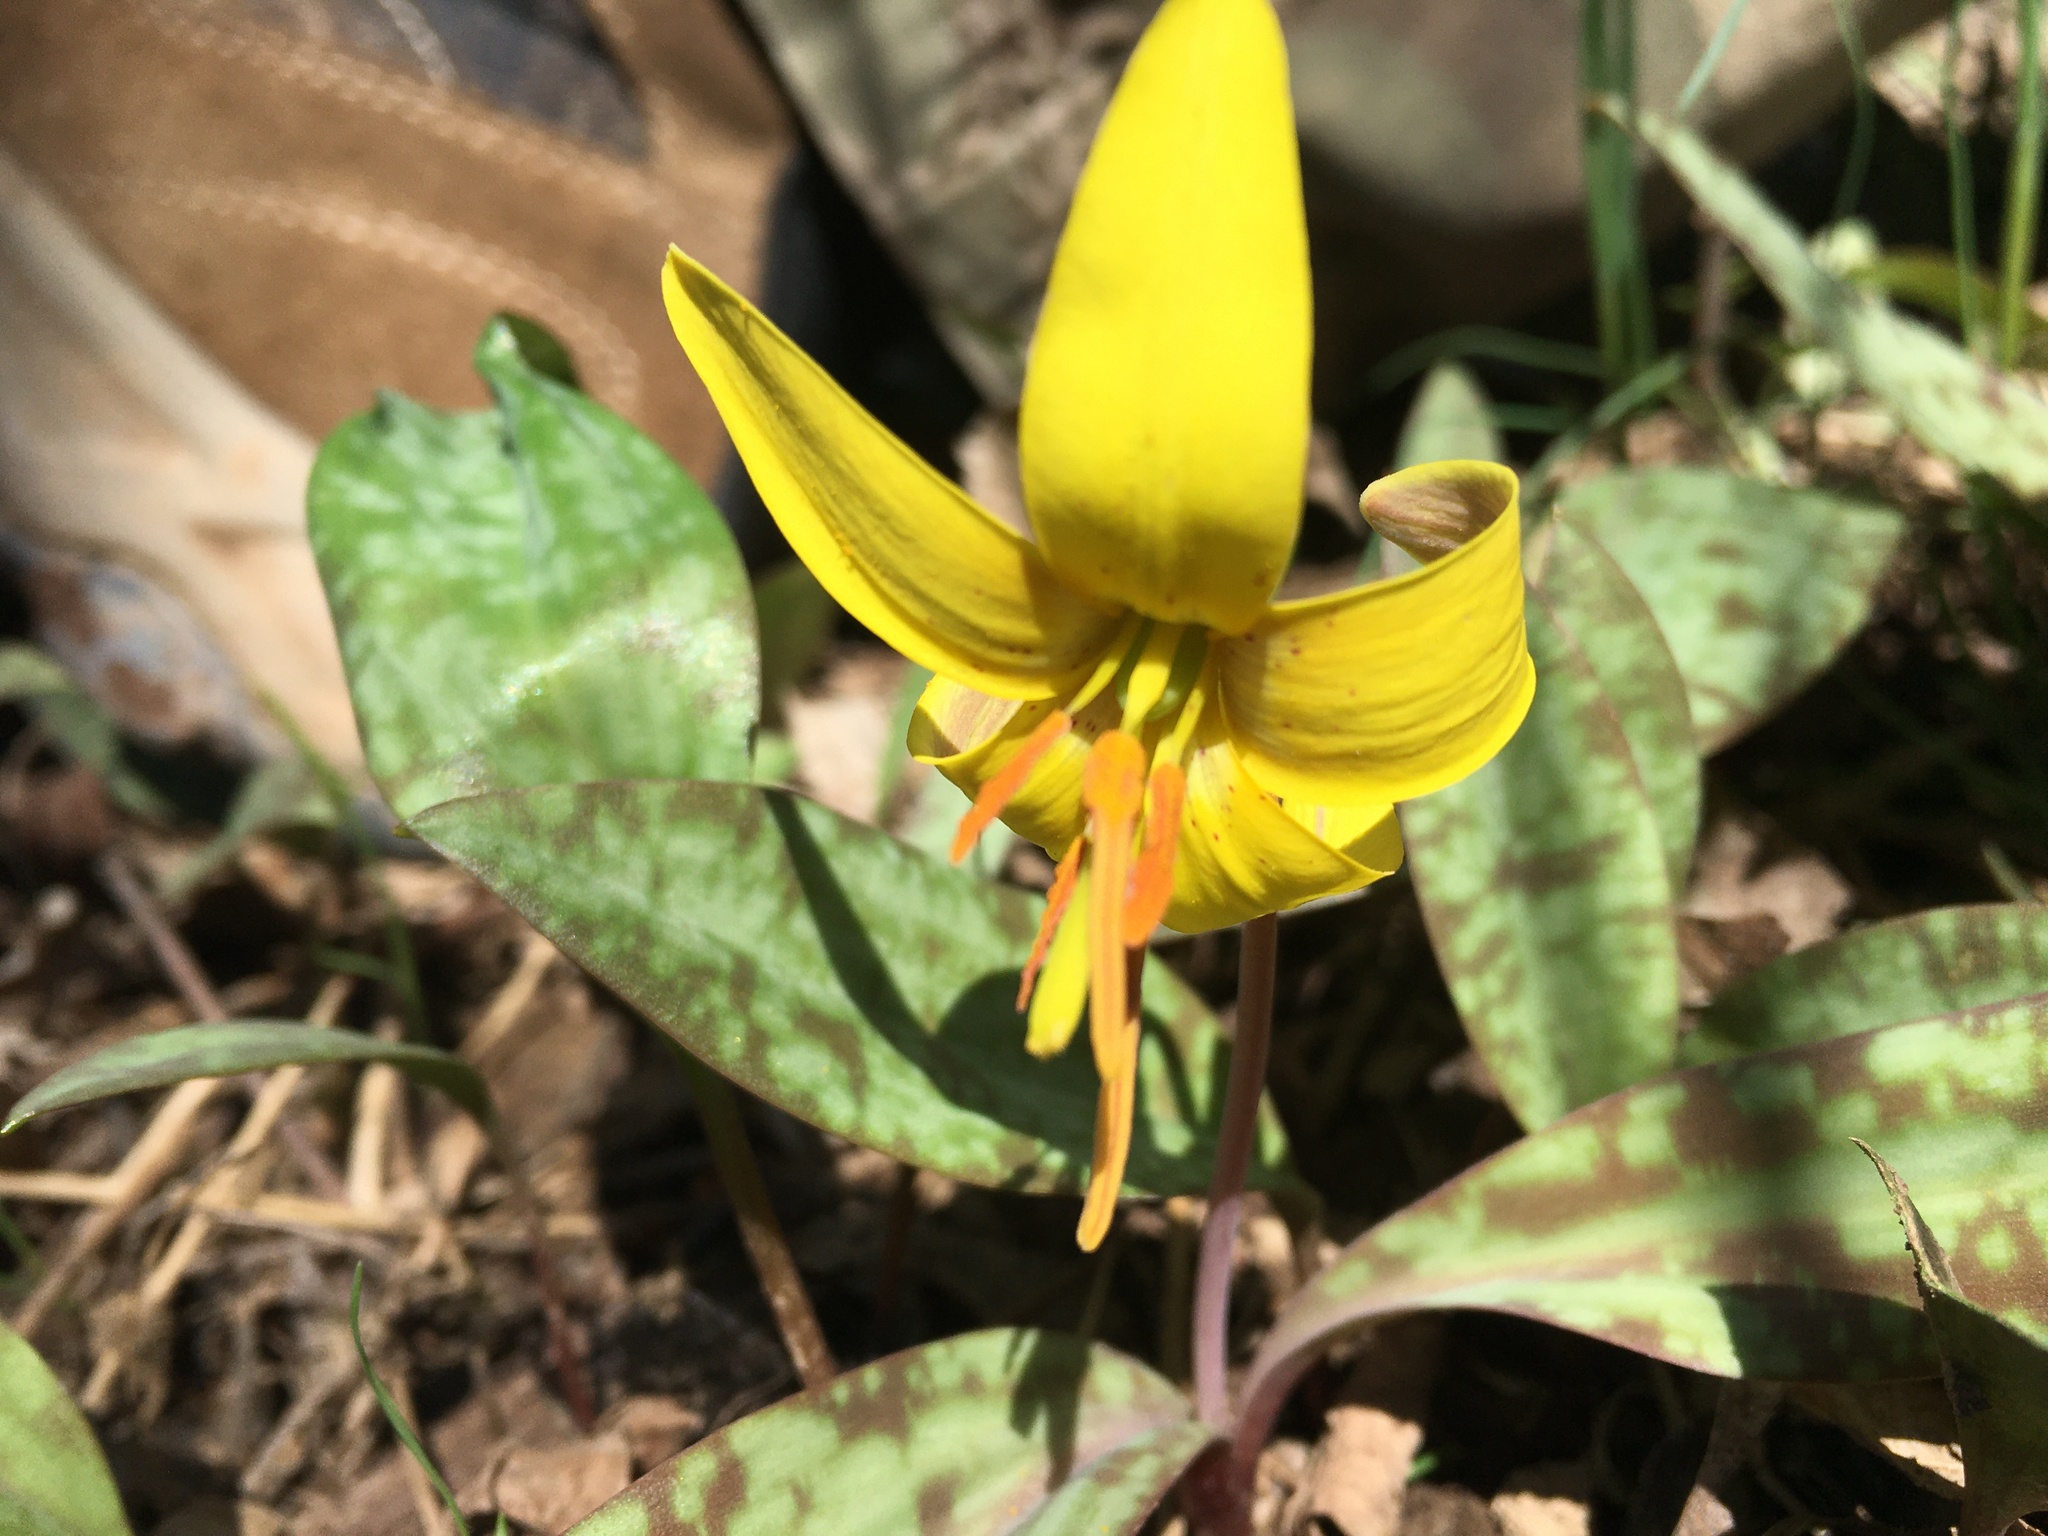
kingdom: Plantae
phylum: Tracheophyta
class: Liliopsida
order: Liliales
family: Liliaceae
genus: Erythronium
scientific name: Erythronium americanum
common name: Yellow adder's-tongue
